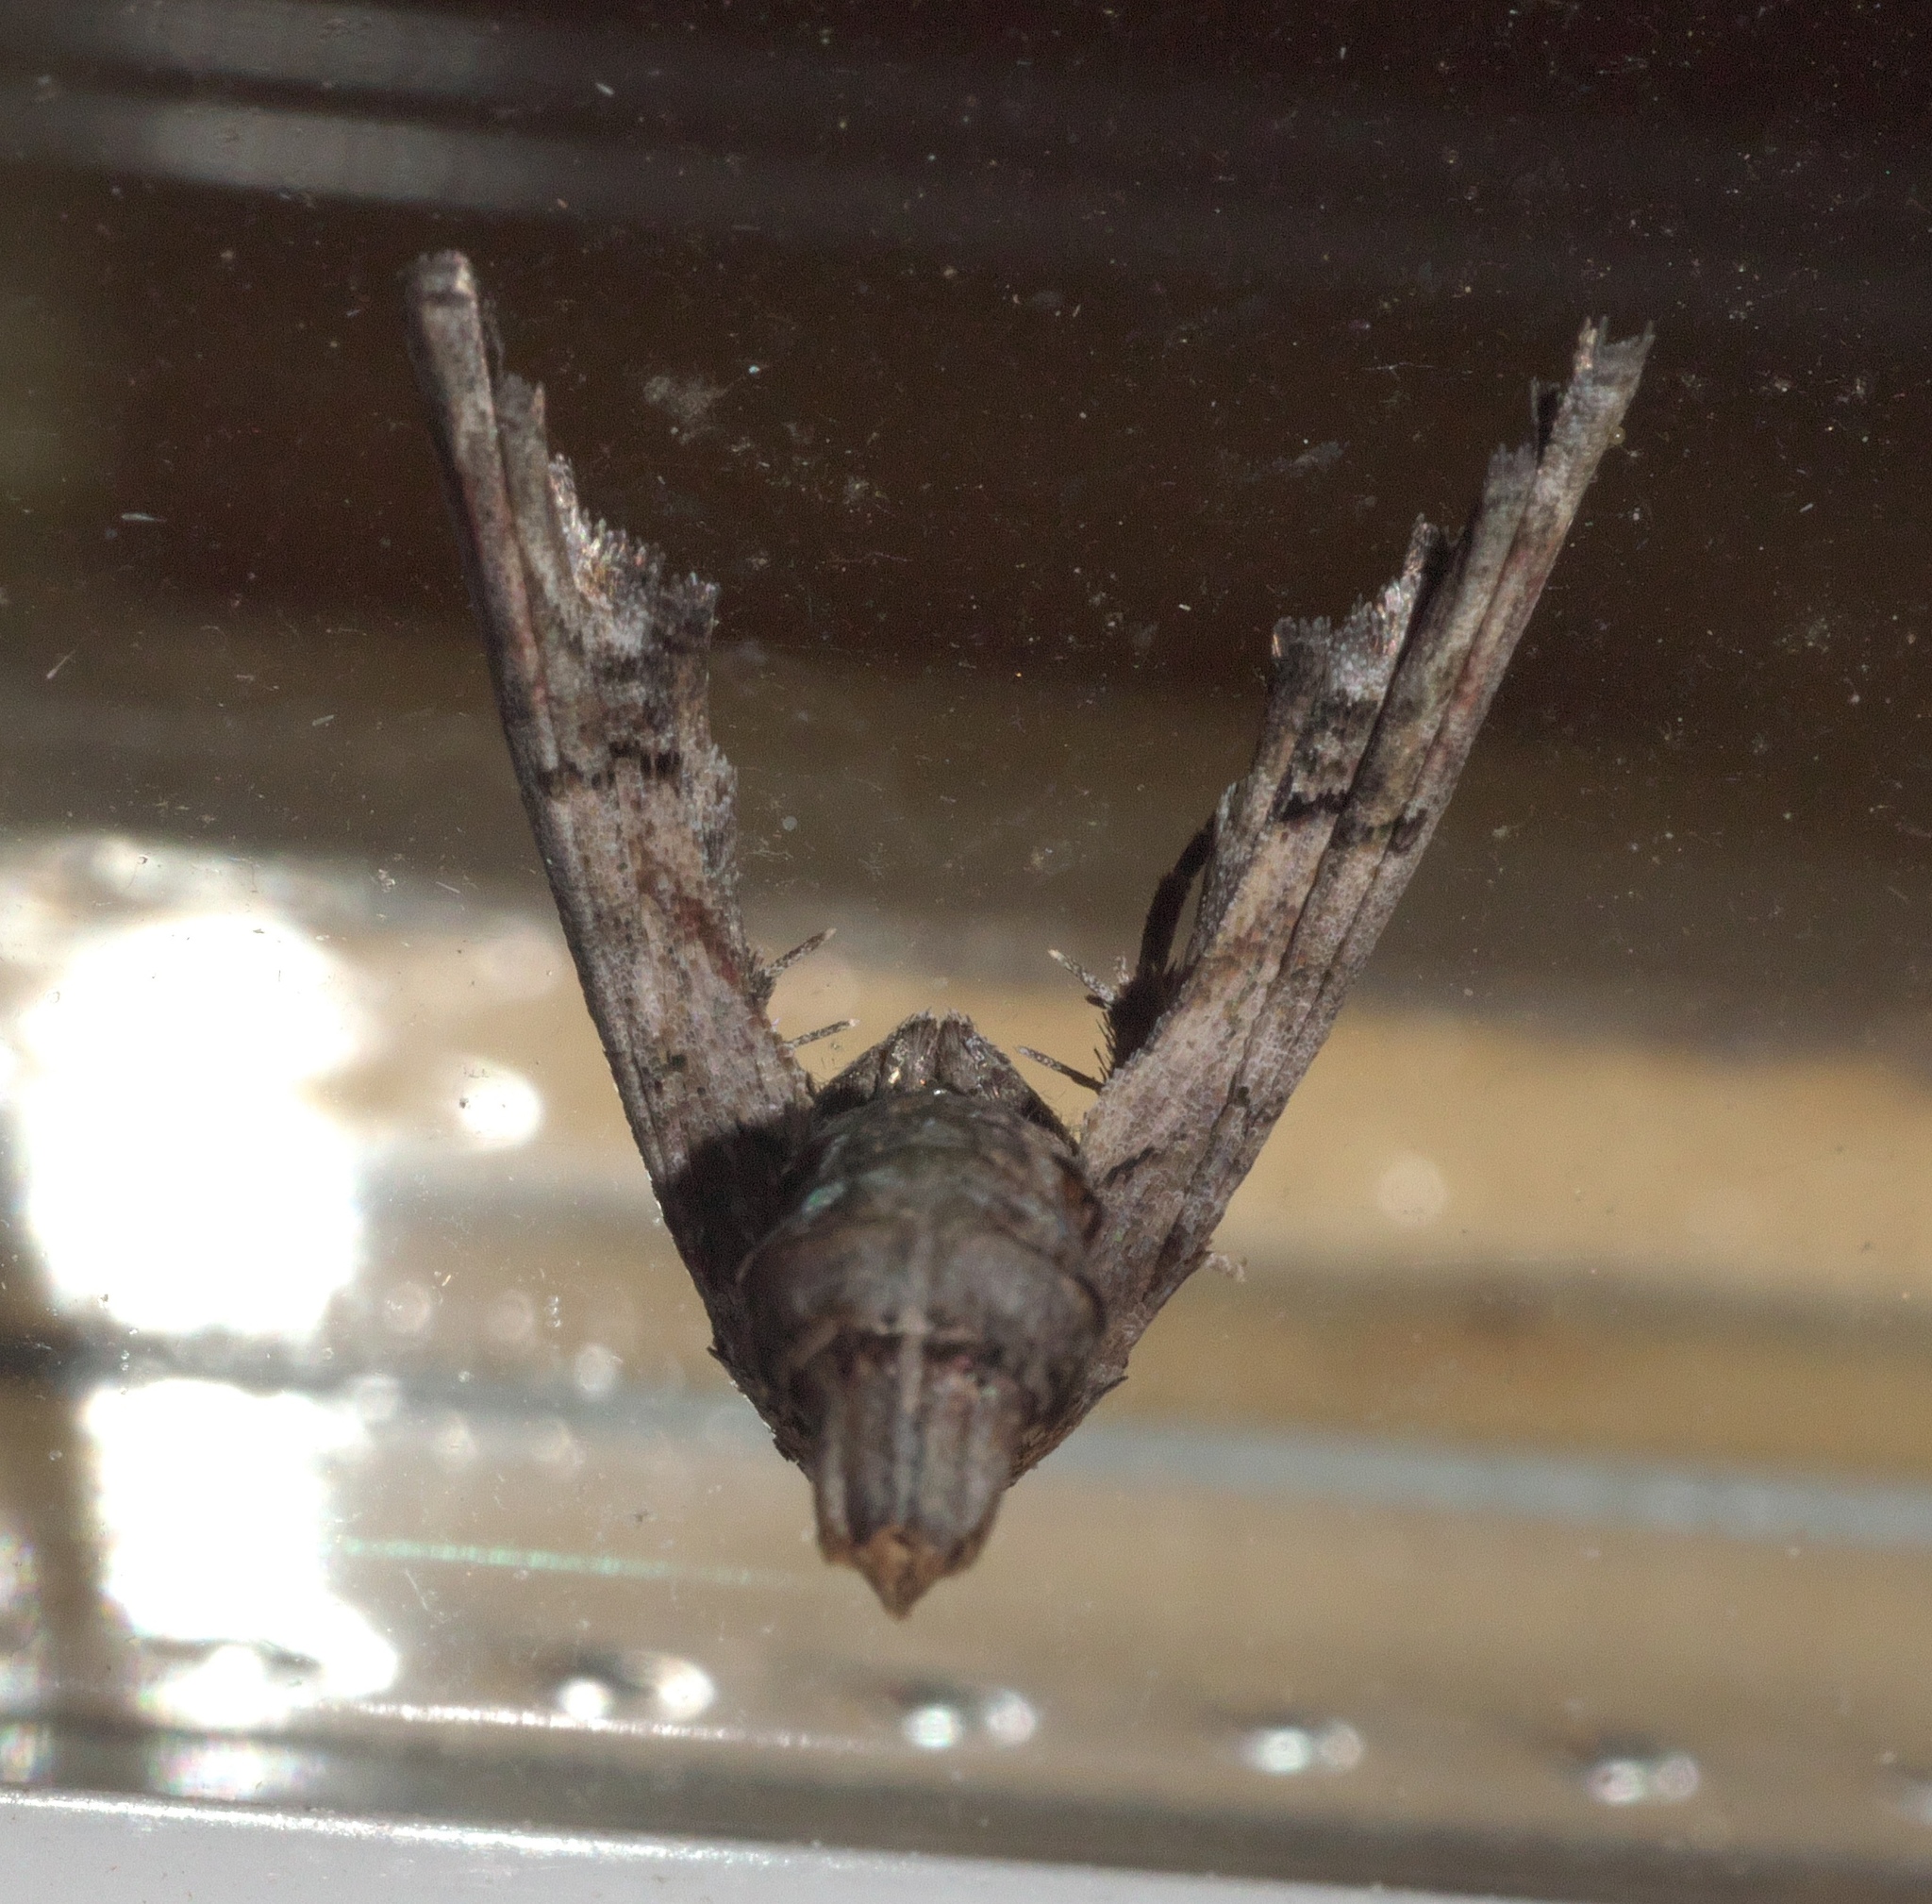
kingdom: Animalia
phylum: Arthropoda
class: Insecta
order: Lepidoptera
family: Euteliidae
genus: Marathyssa
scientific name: Marathyssa inficita
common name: Dark marathyssa moth
